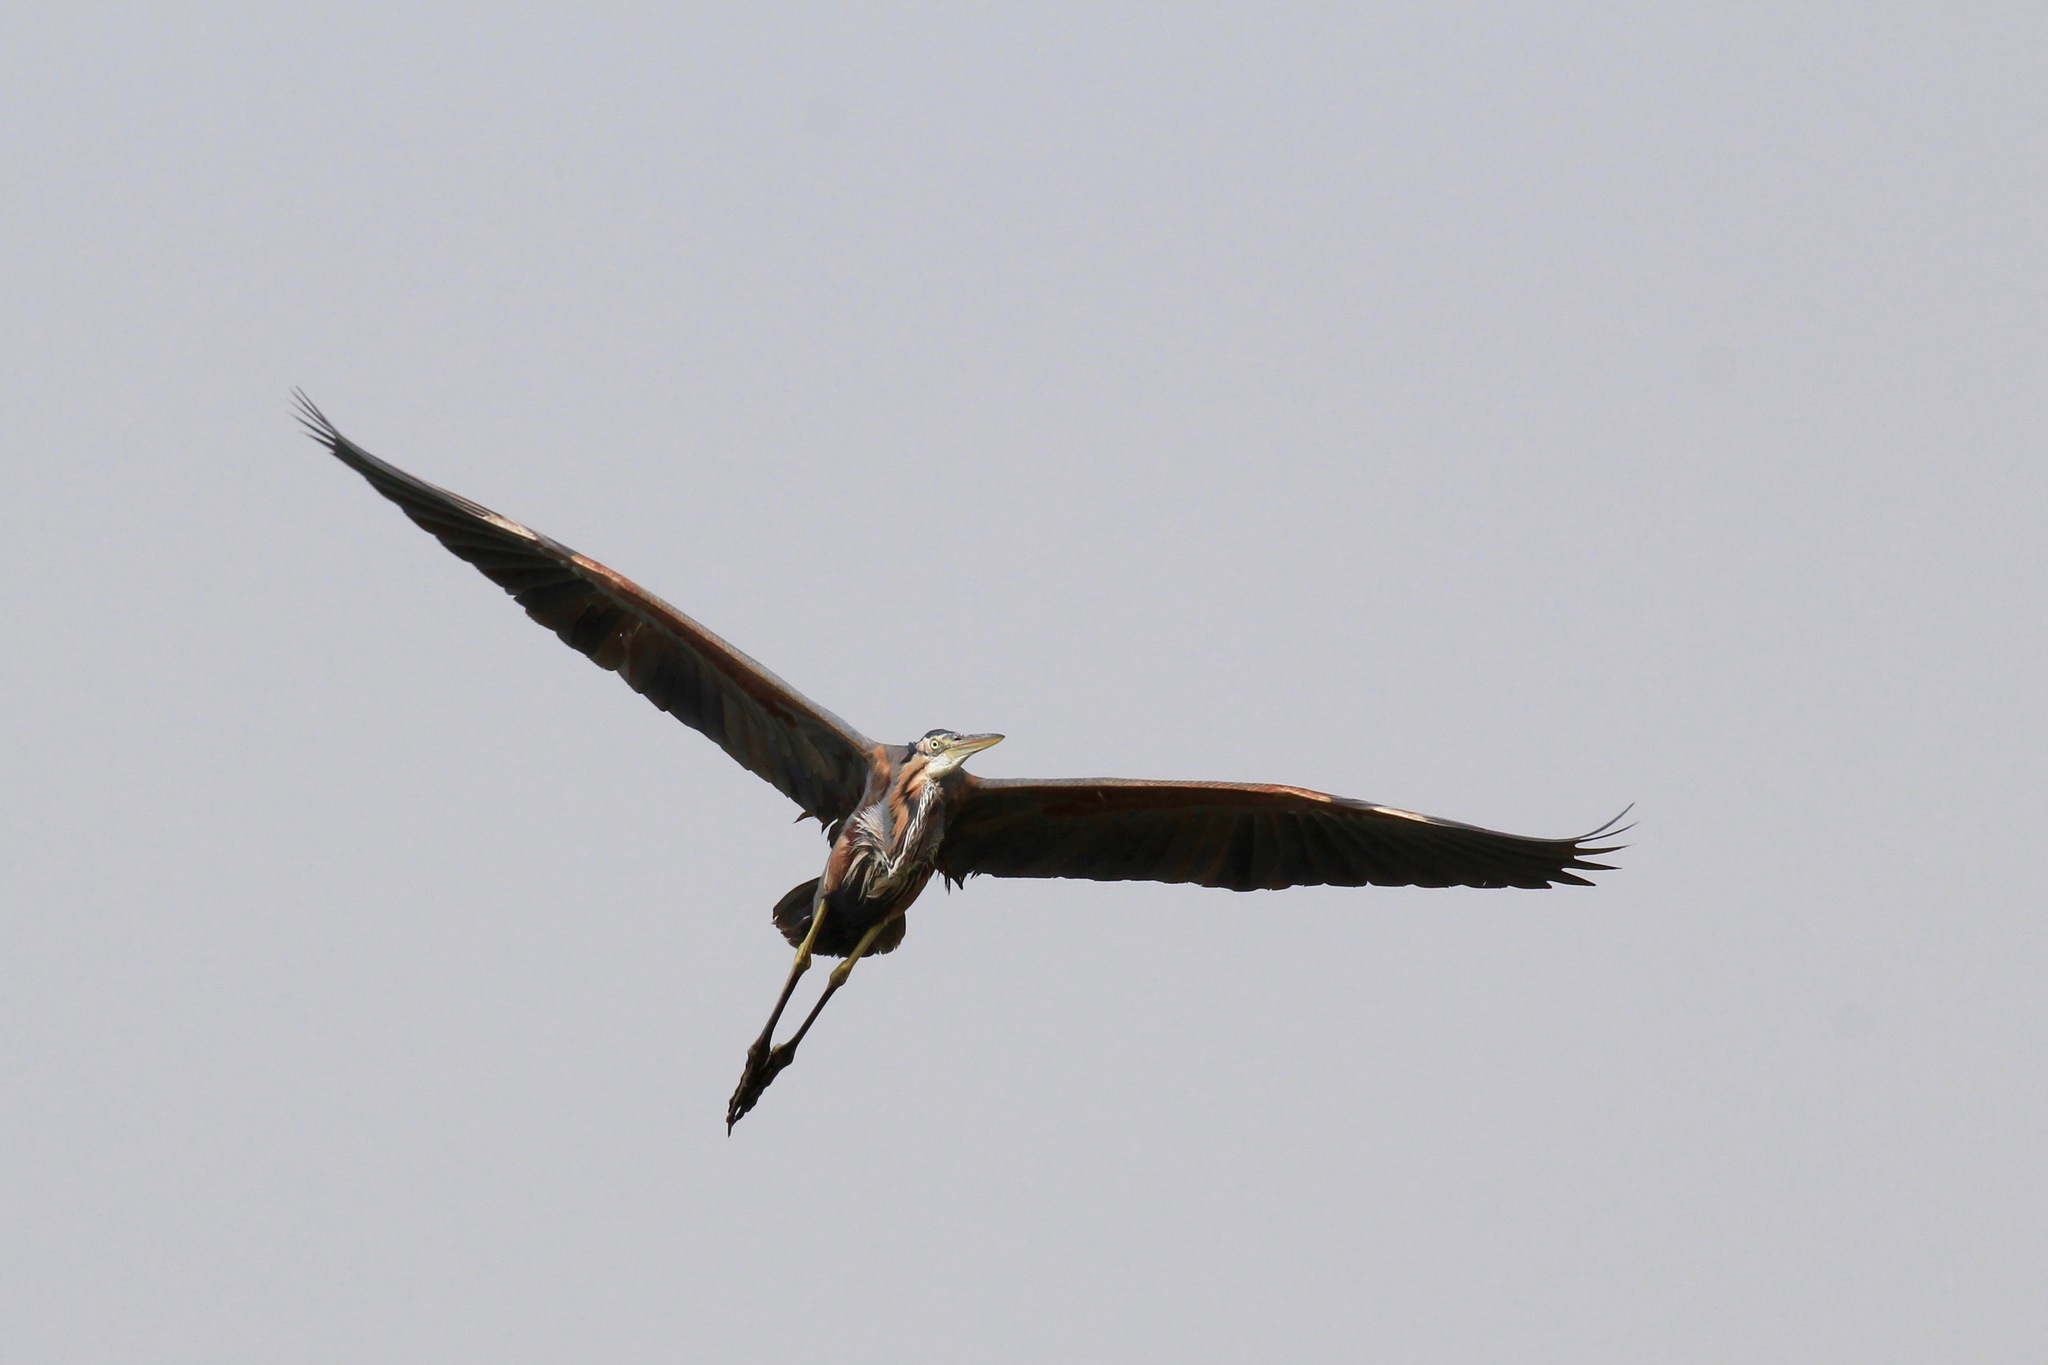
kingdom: Animalia
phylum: Chordata
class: Aves
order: Pelecaniformes
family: Ardeidae
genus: Ardea
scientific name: Ardea purpurea
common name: Purple heron
